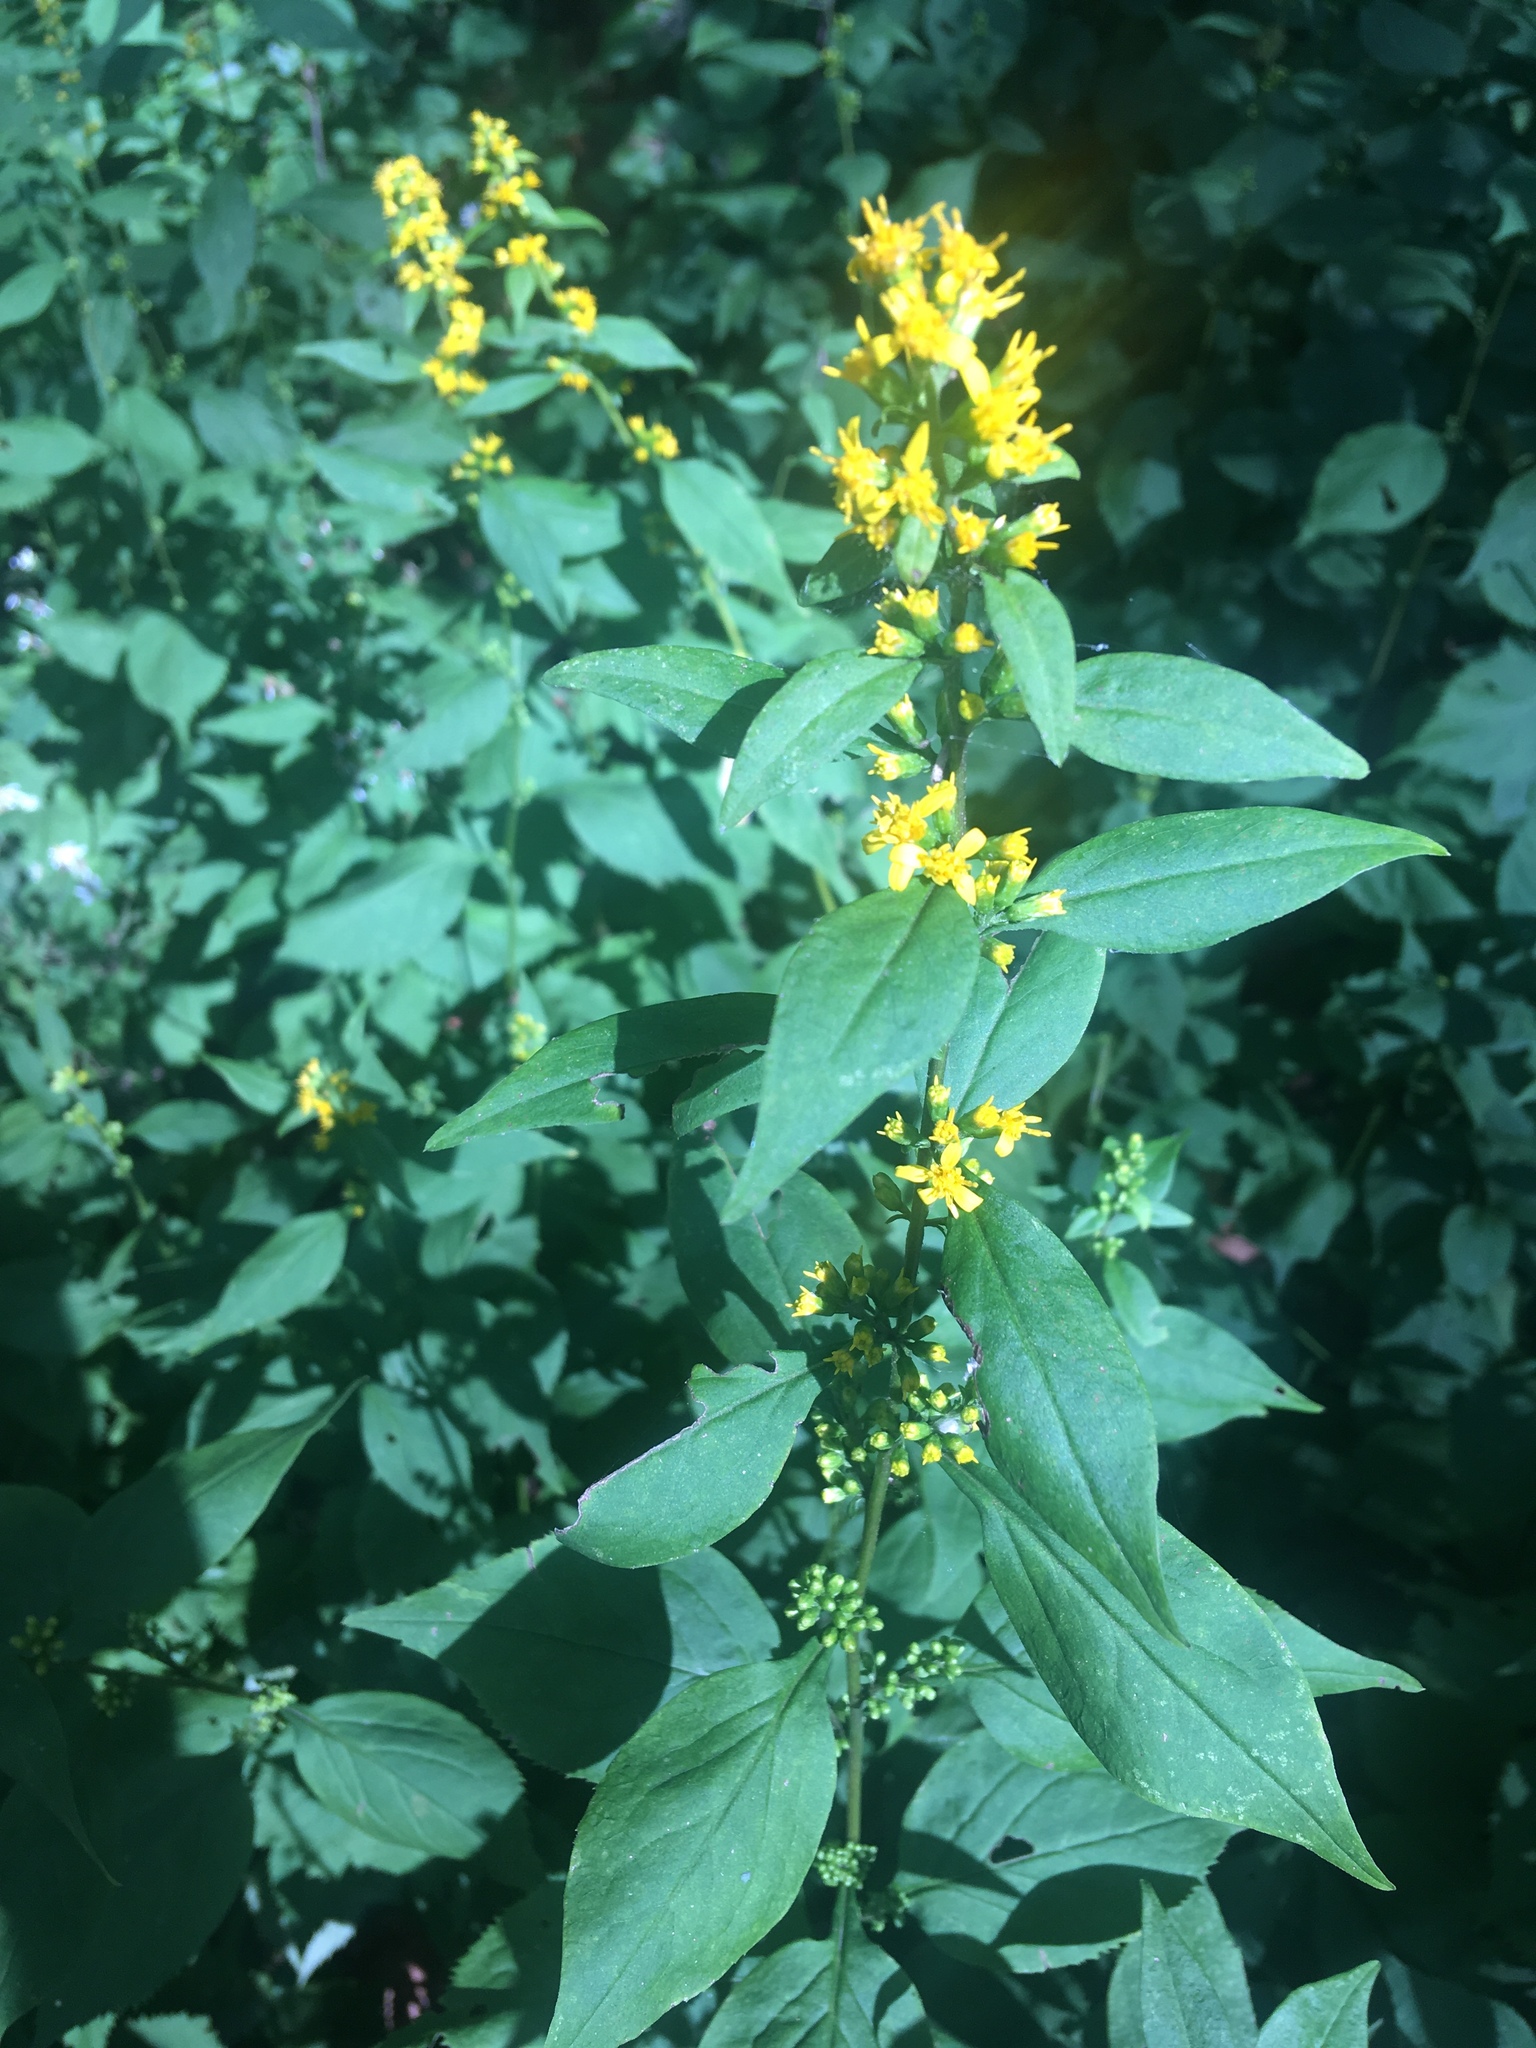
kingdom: Plantae
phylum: Tracheophyta
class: Magnoliopsida
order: Asterales
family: Asteraceae
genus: Solidago
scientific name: Solidago flexicaulis
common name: Zig-zag goldenrod
